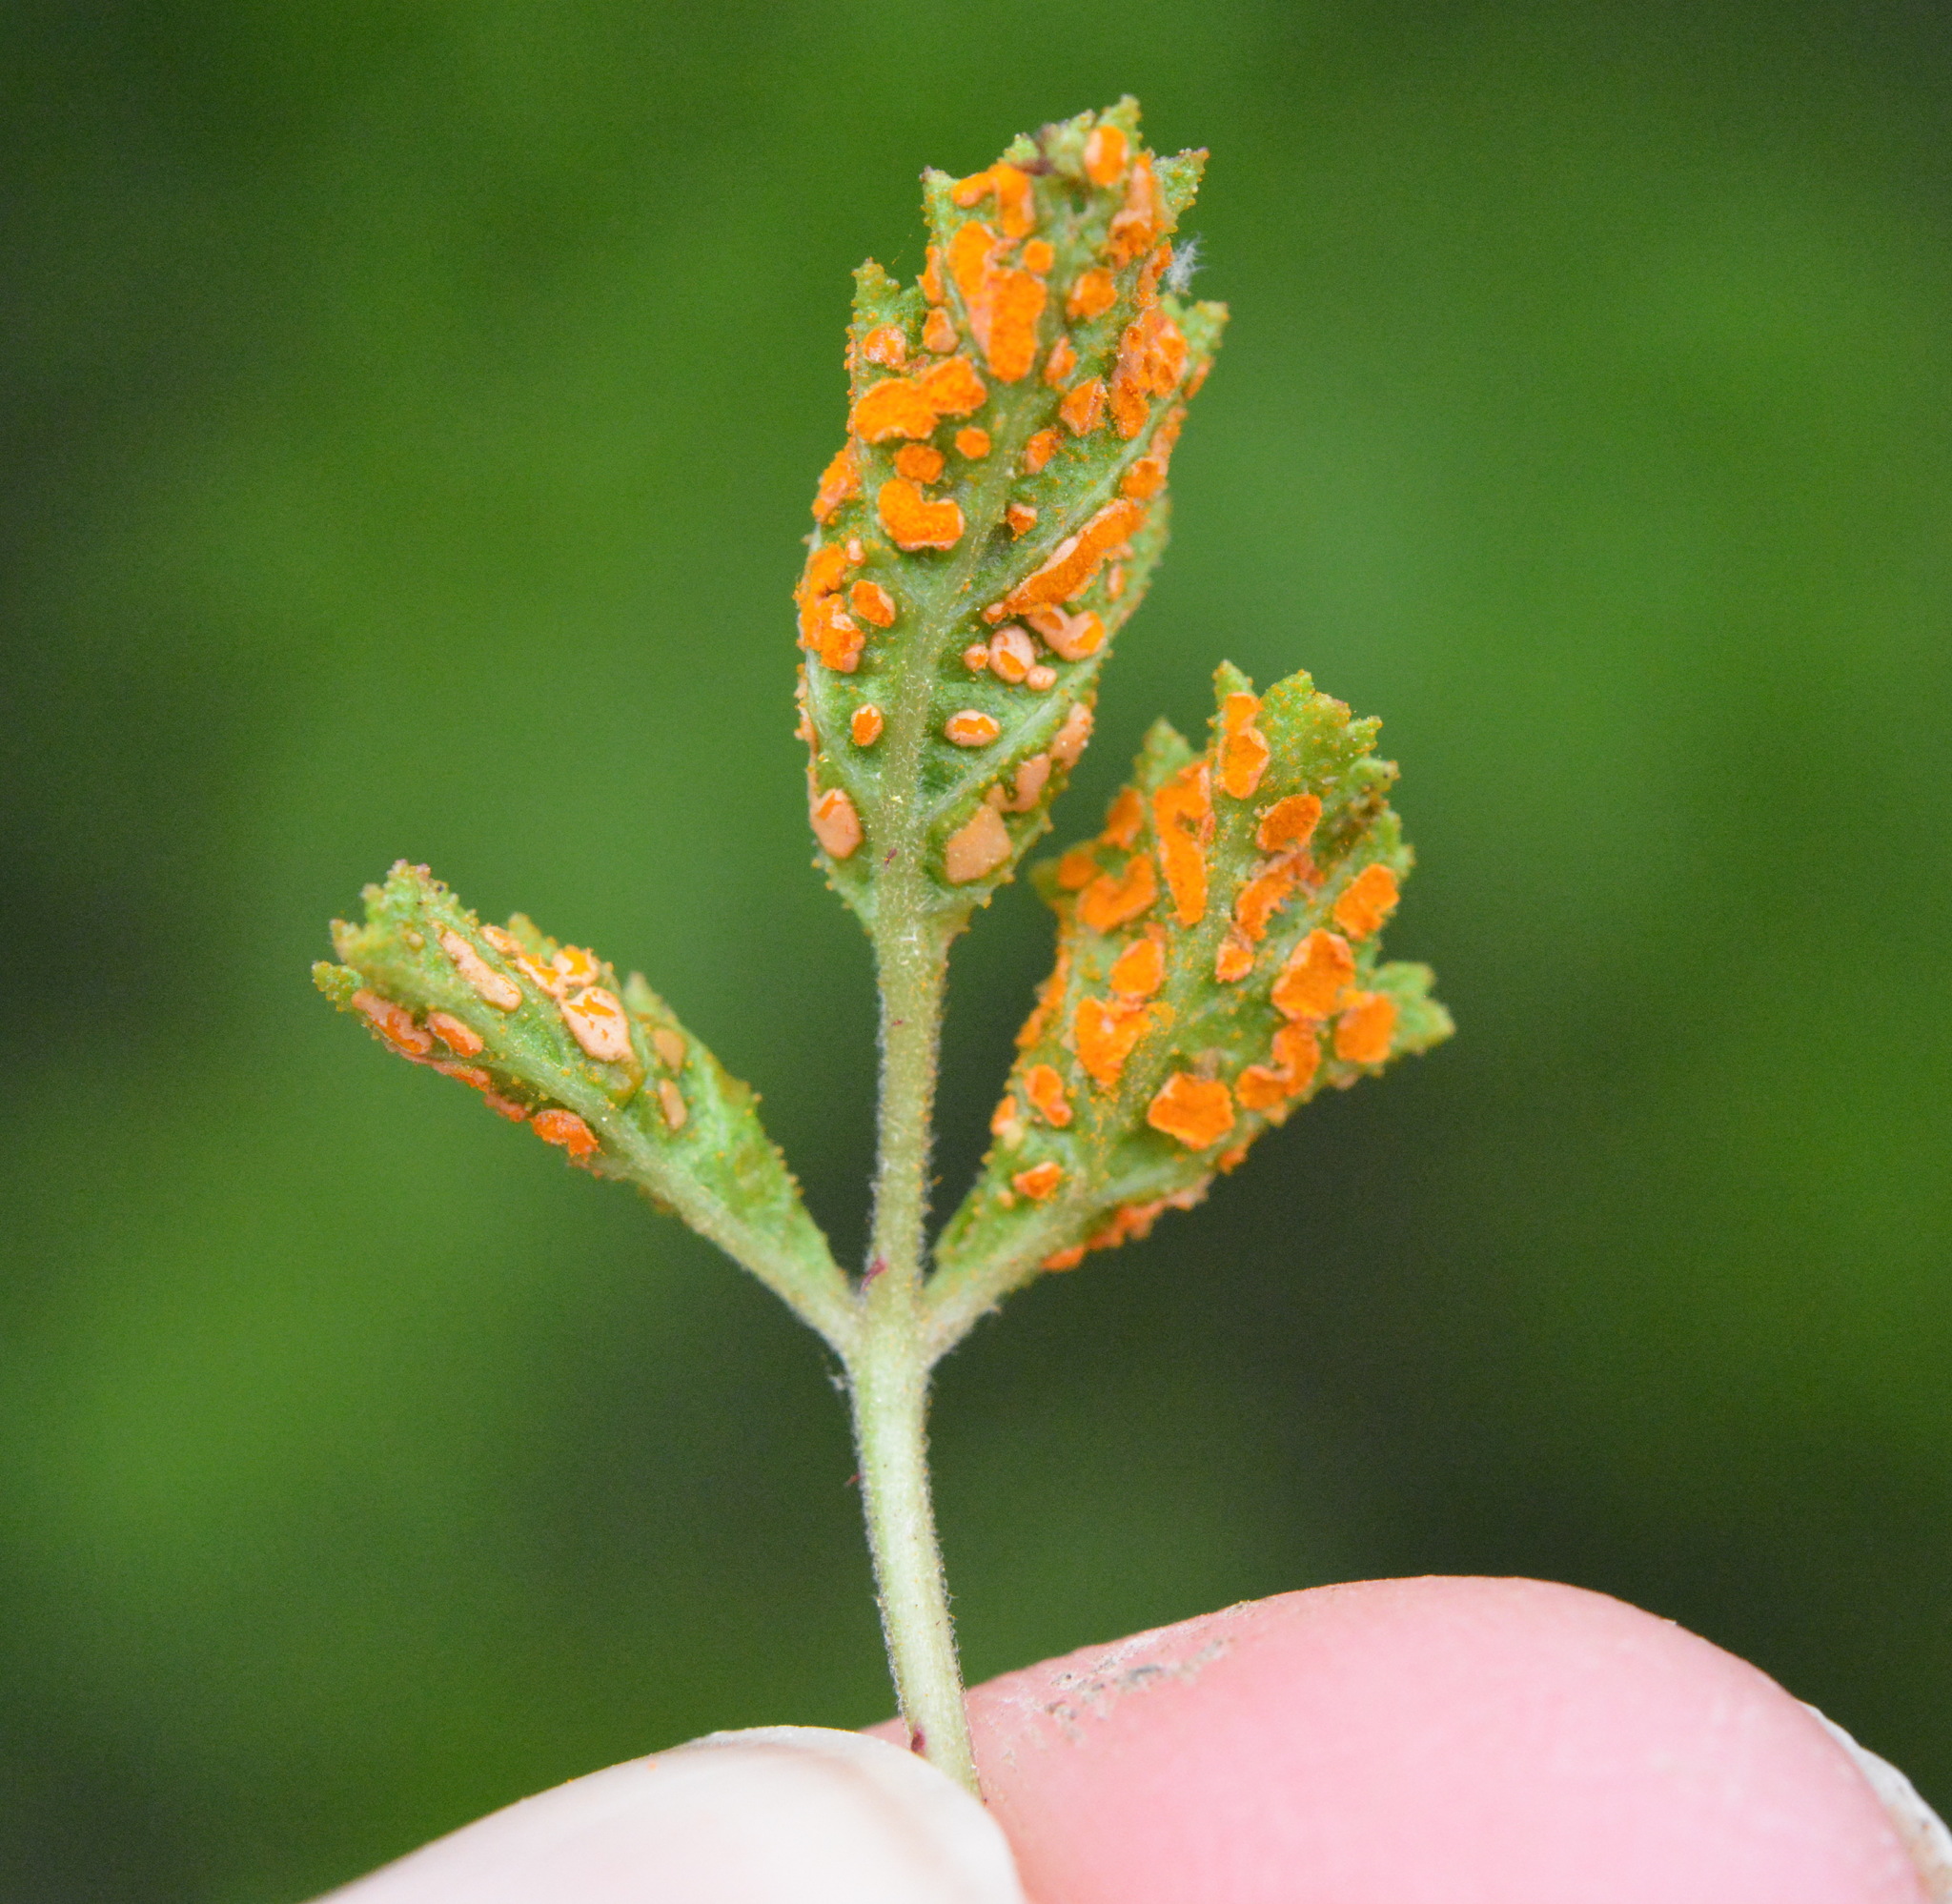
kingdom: Fungi
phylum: Basidiomycota
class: Pucciniomycetes
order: Pucciniales
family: Phragmidiaceae
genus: Arthuriomyces
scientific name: Arthuriomyces peckianus
